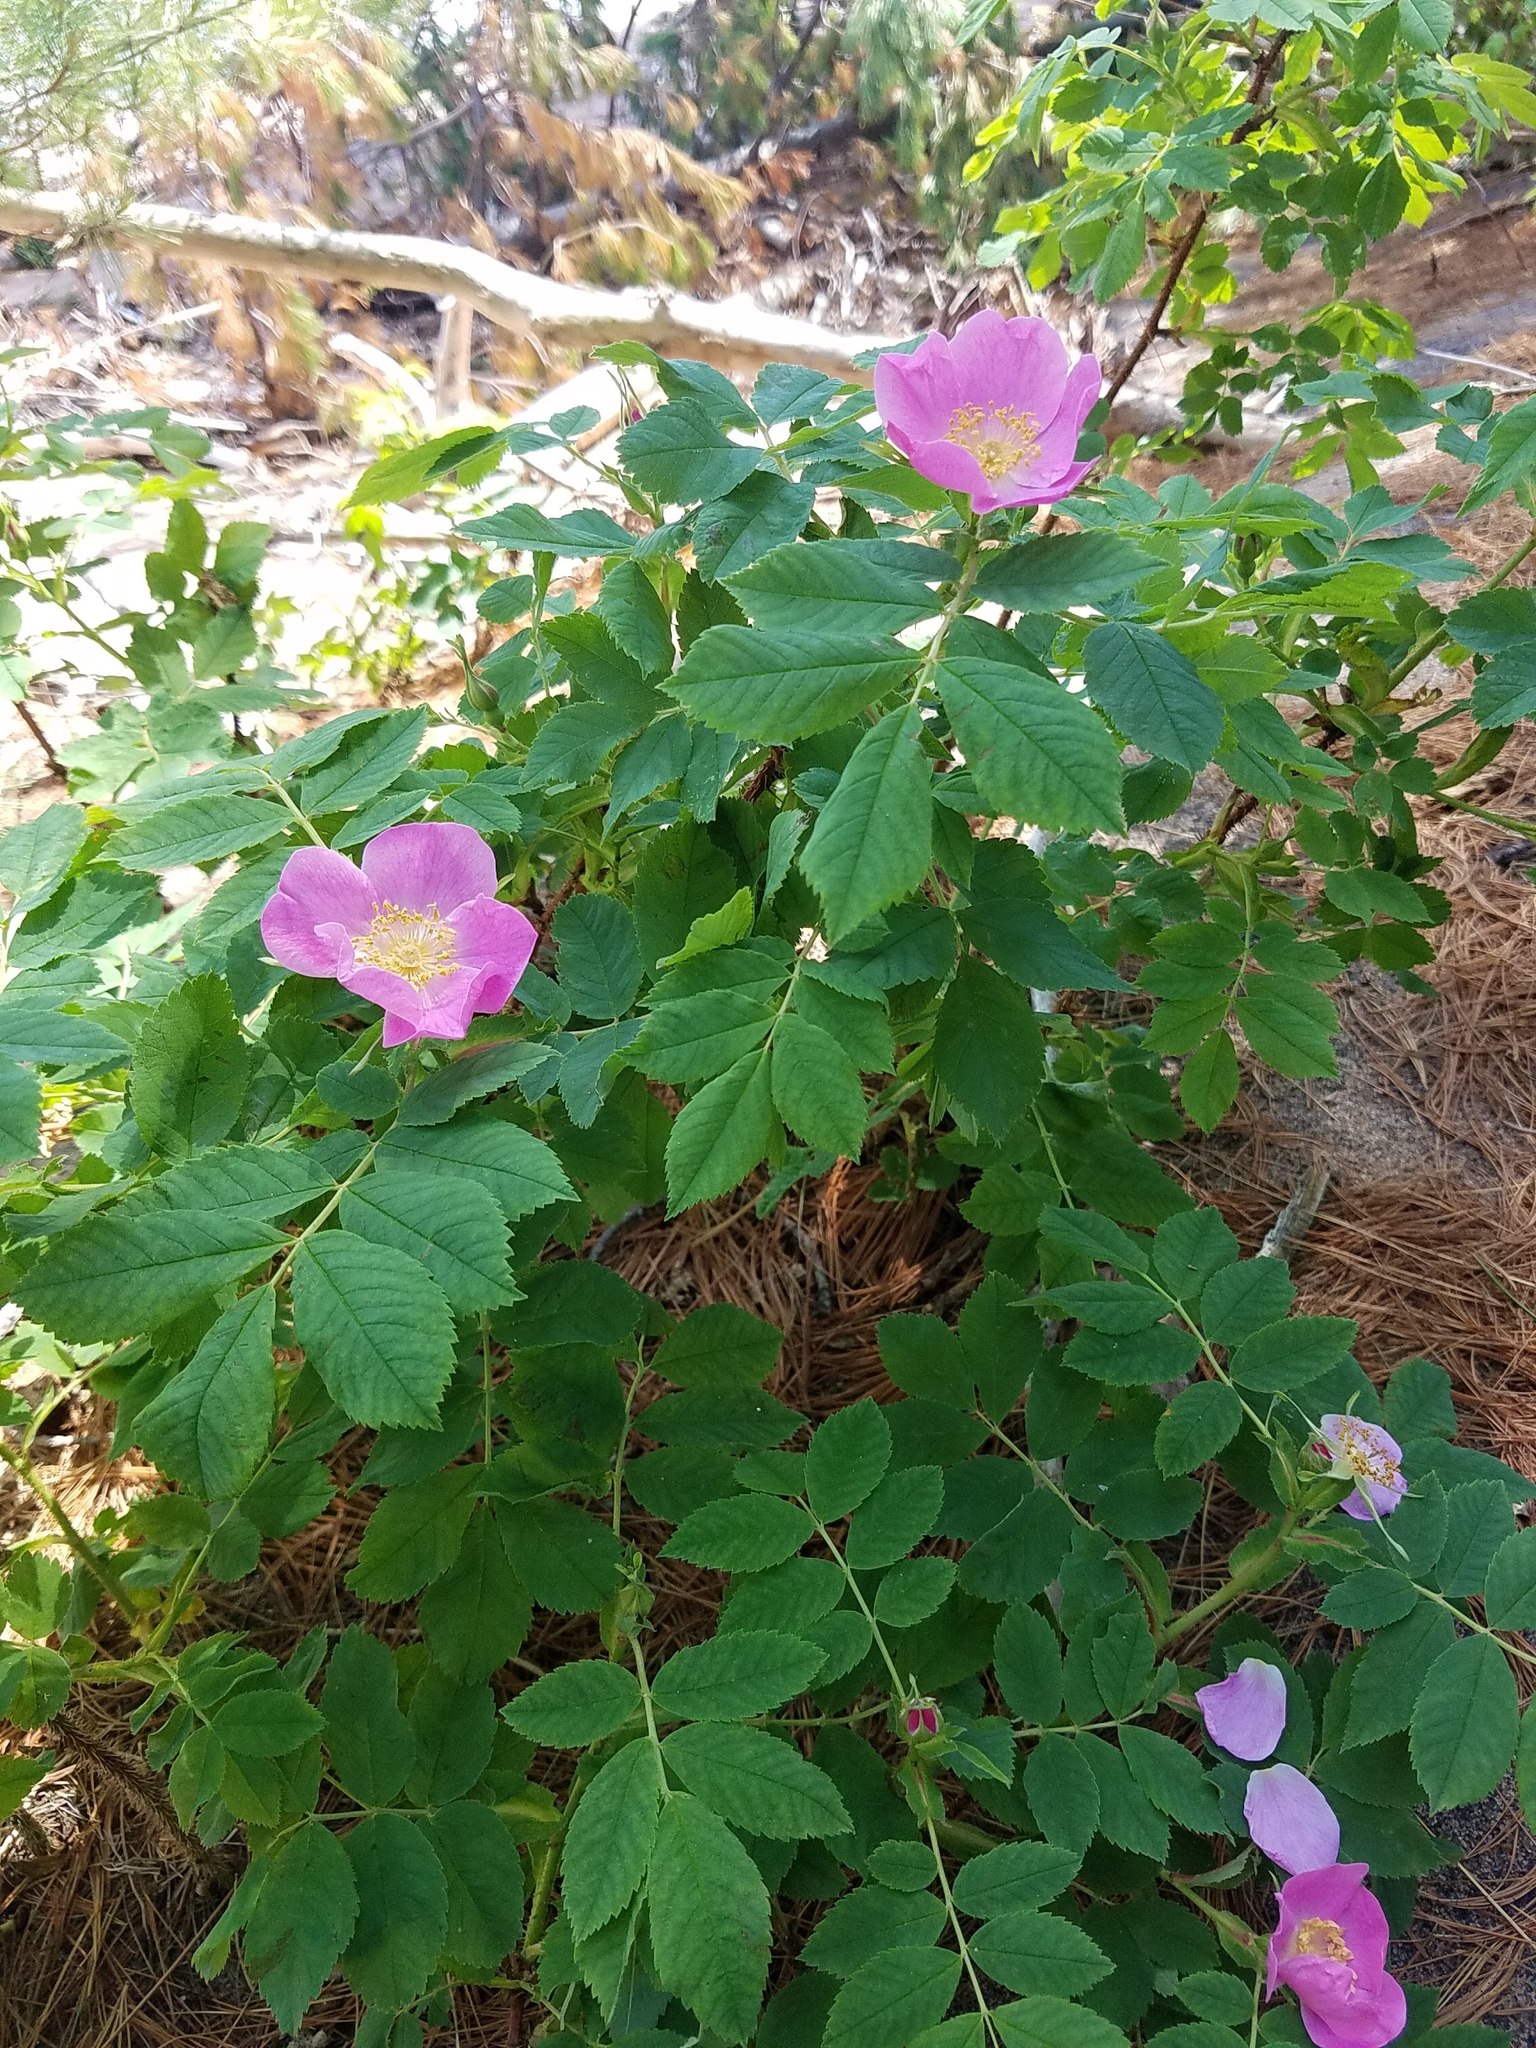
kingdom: Plantae
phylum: Tracheophyta
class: Magnoliopsida
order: Rosales
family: Rosaceae
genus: Rosa
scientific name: Rosa blanda
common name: Smooth rose
